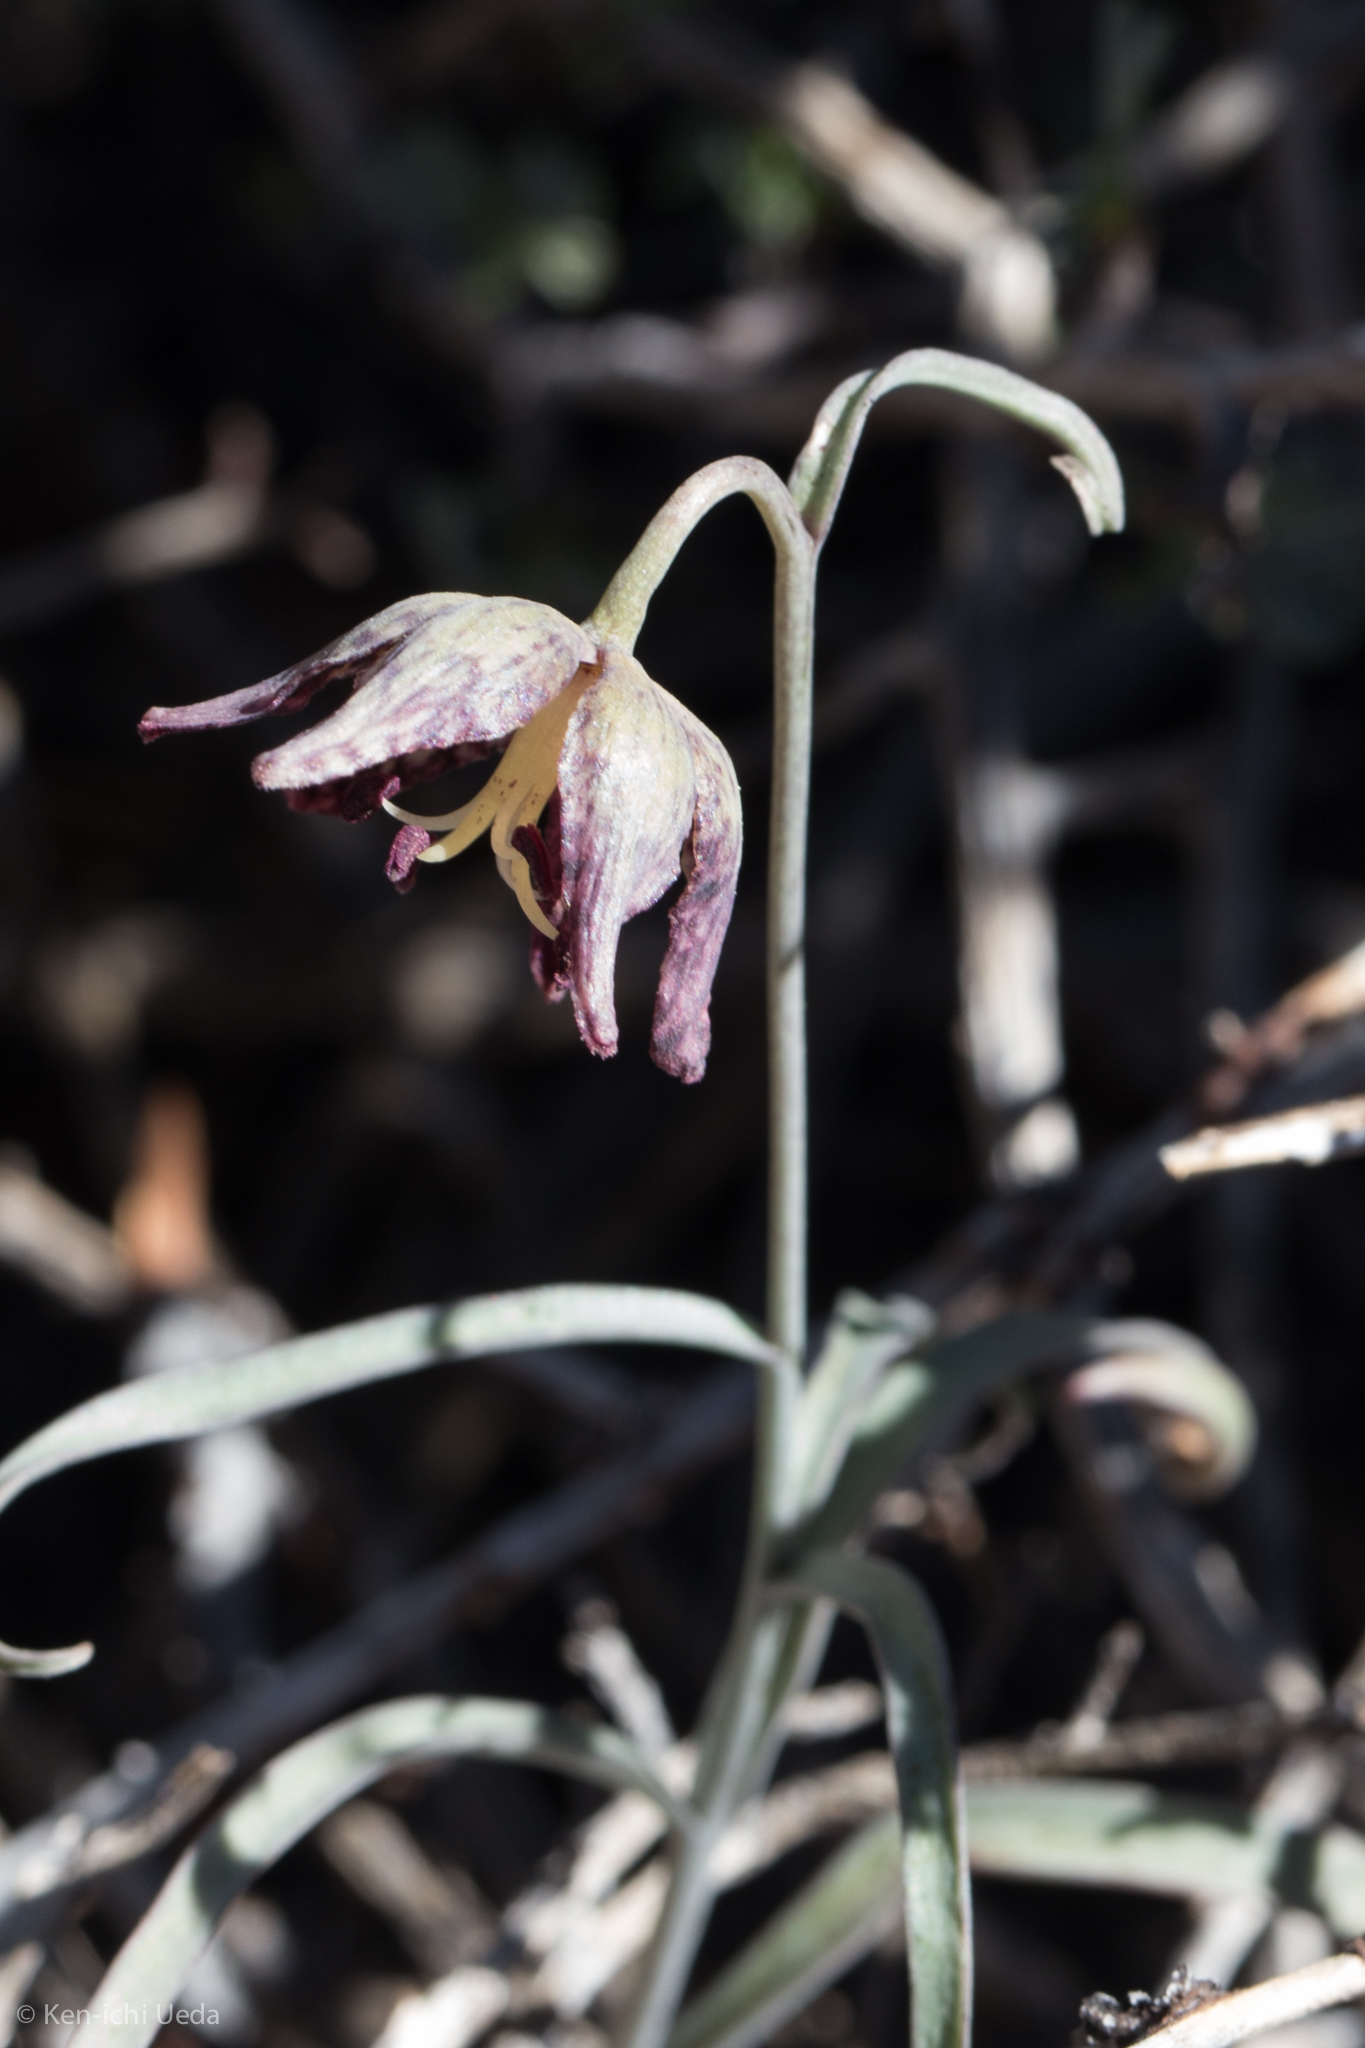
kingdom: Plantae
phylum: Tracheophyta
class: Liliopsida
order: Liliales
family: Liliaceae
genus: Fritillaria
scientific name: Fritillaria atropurpurea
